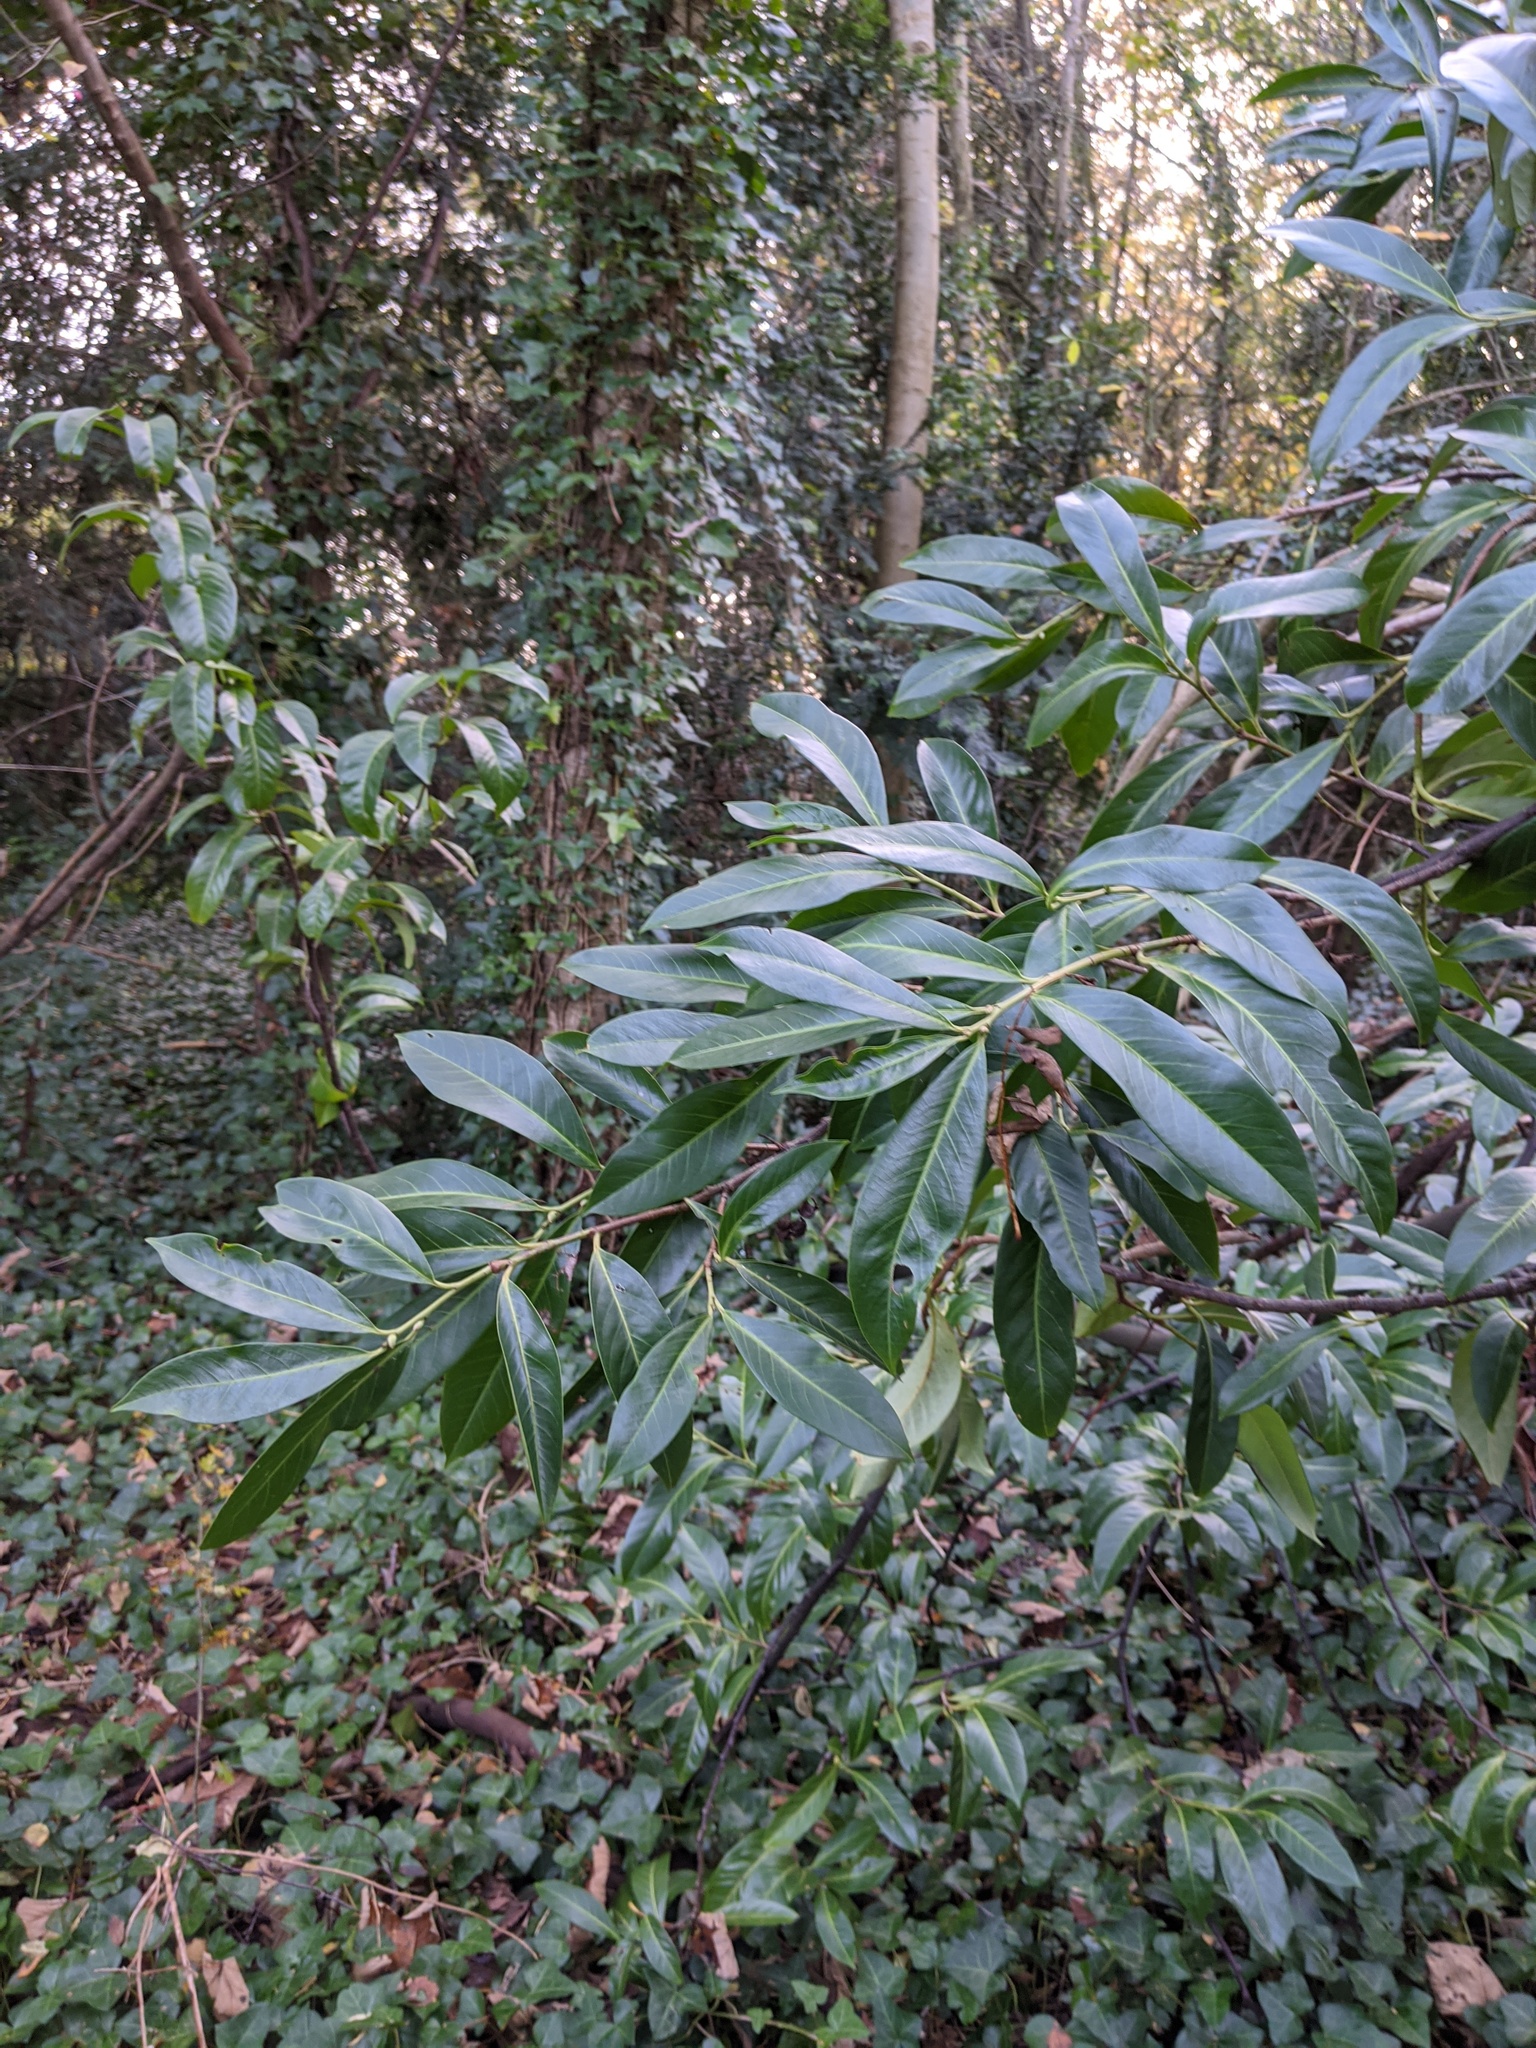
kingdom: Plantae
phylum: Tracheophyta
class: Magnoliopsida
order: Rosales
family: Rosaceae
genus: Prunus
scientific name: Prunus laurocerasus
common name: Cherry laurel
